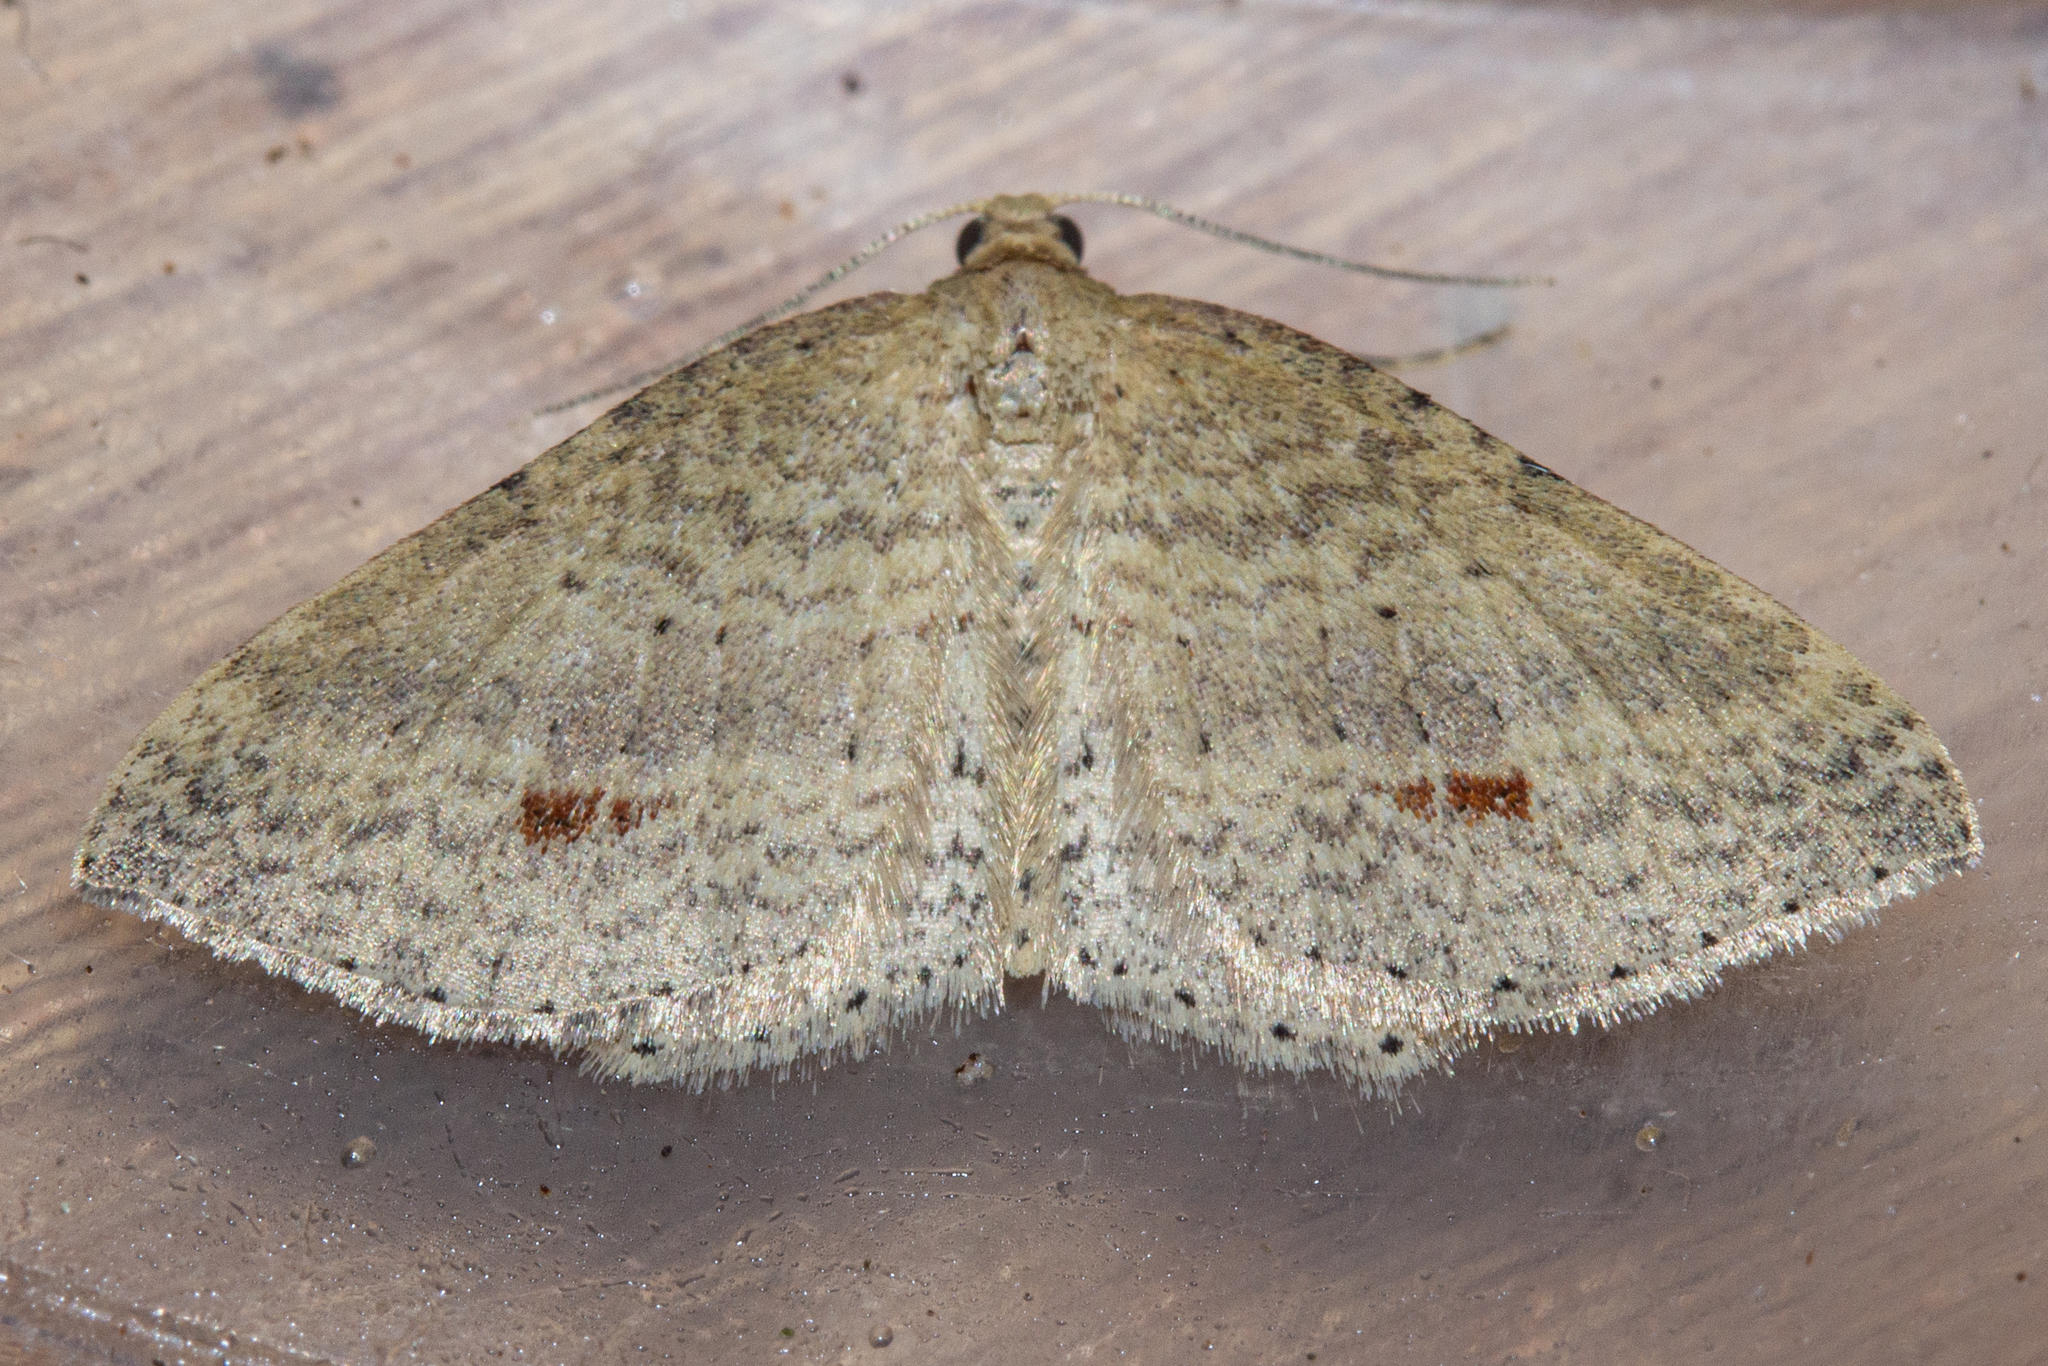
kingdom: Animalia
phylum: Arthropoda
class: Insecta
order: Lepidoptera
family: Geometridae
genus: Epicyme
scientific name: Epicyme rubropunctaria
